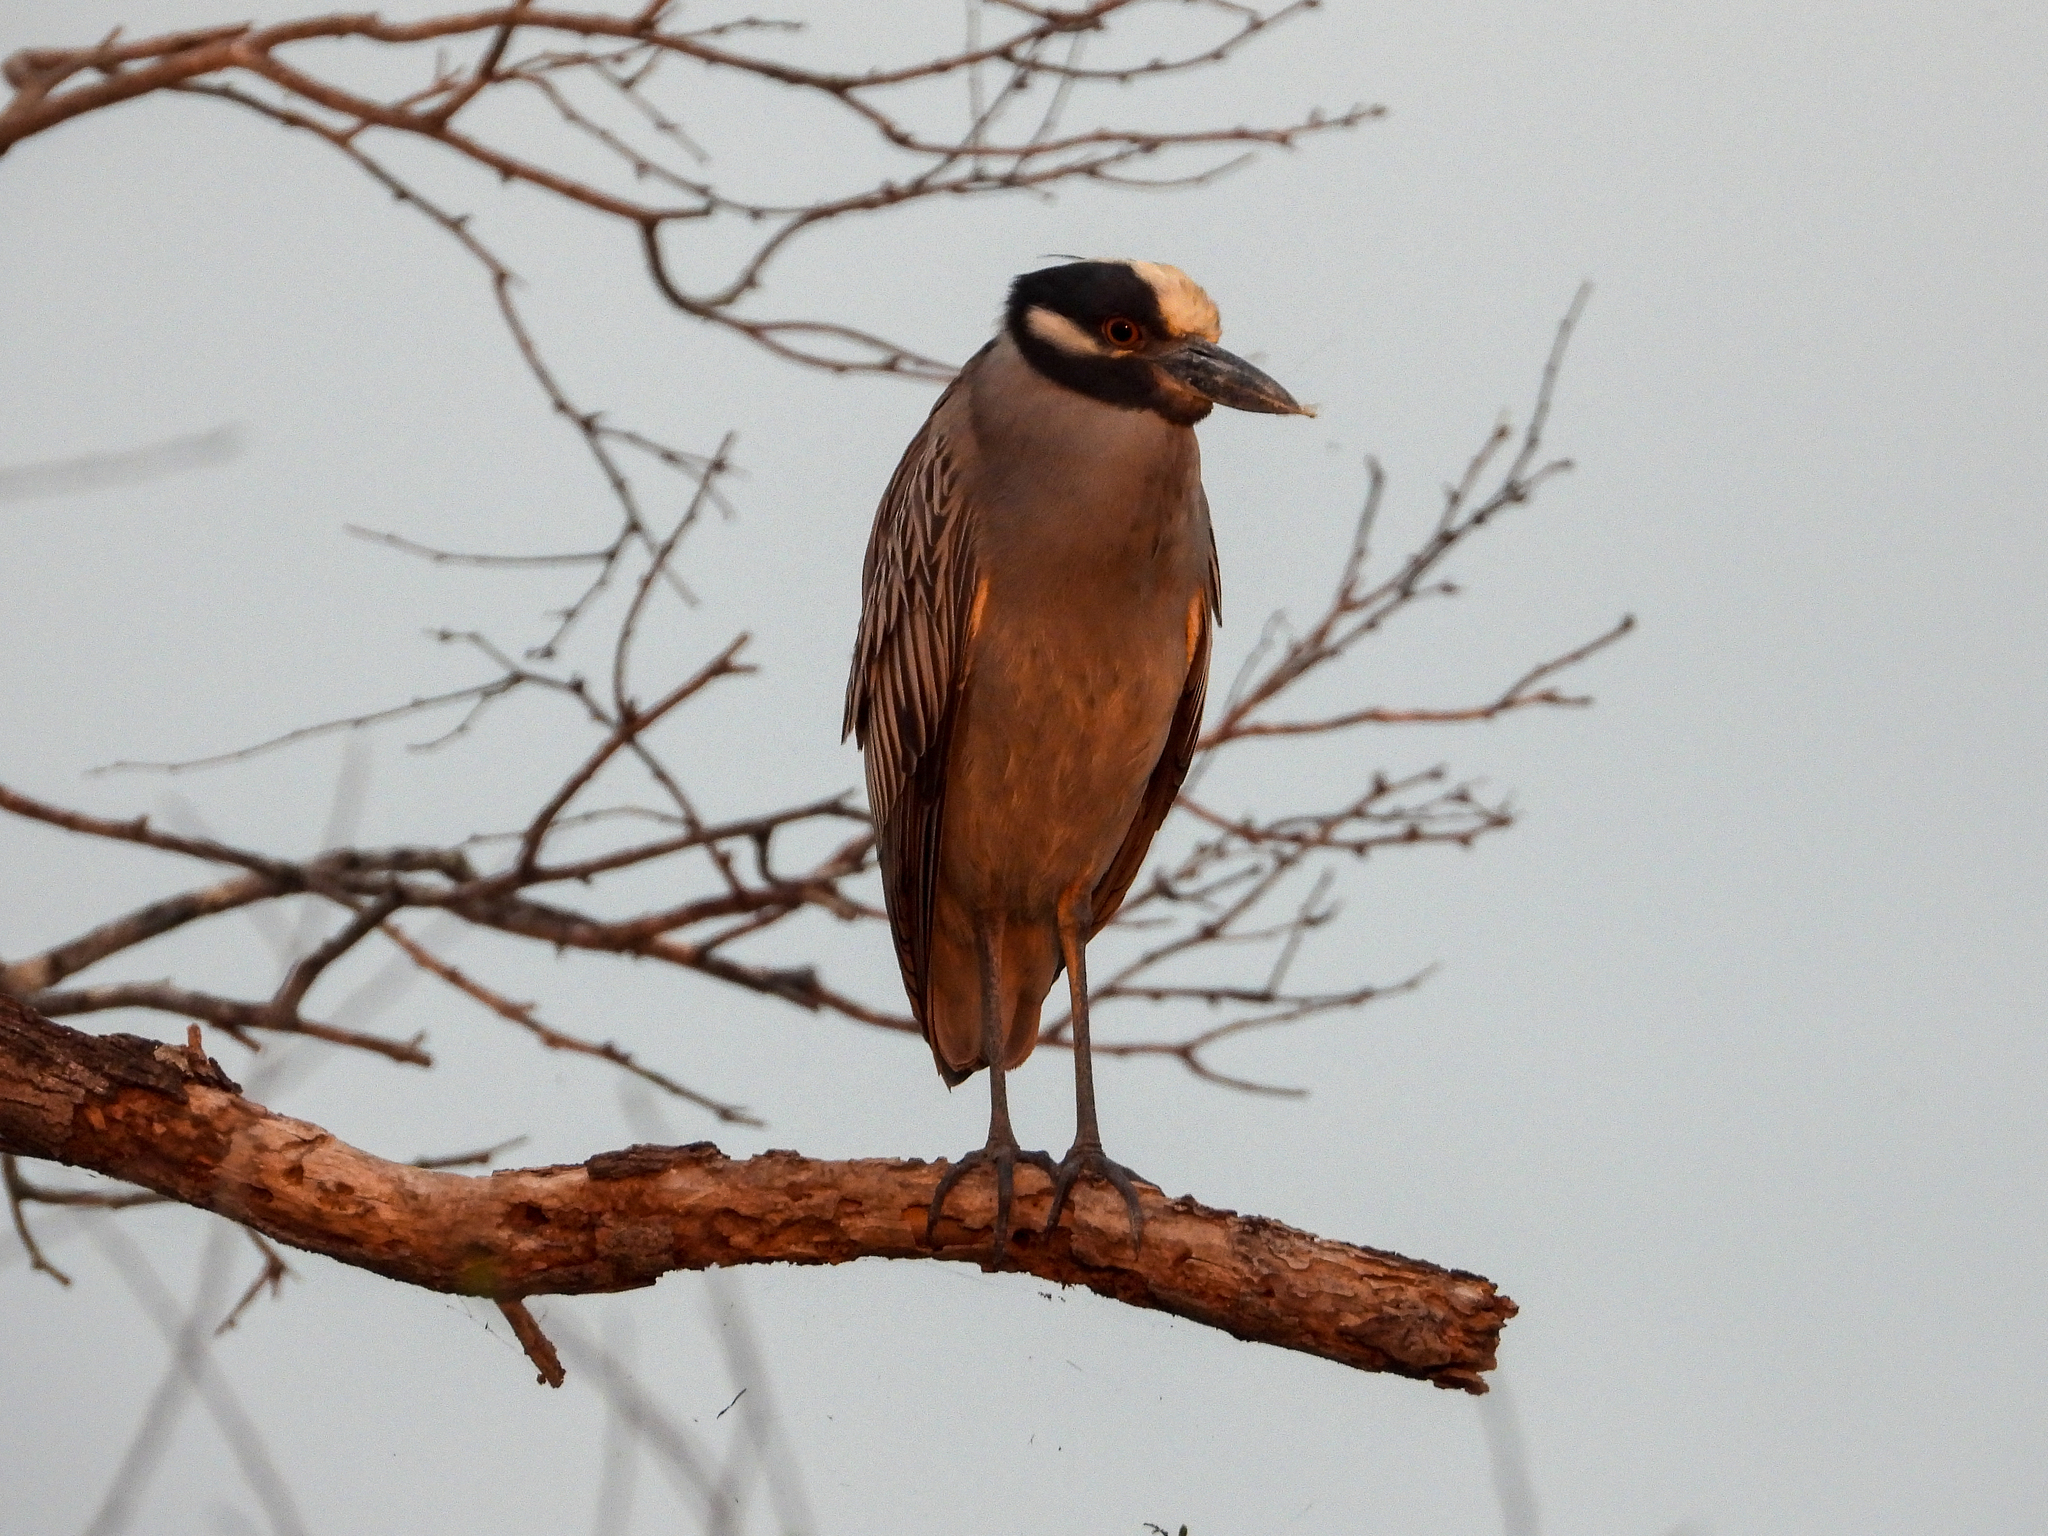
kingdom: Animalia
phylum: Chordata
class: Aves
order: Pelecaniformes
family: Ardeidae
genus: Nyctanassa
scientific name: Nyctanassa violacea
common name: Yellow-crowned night heron
